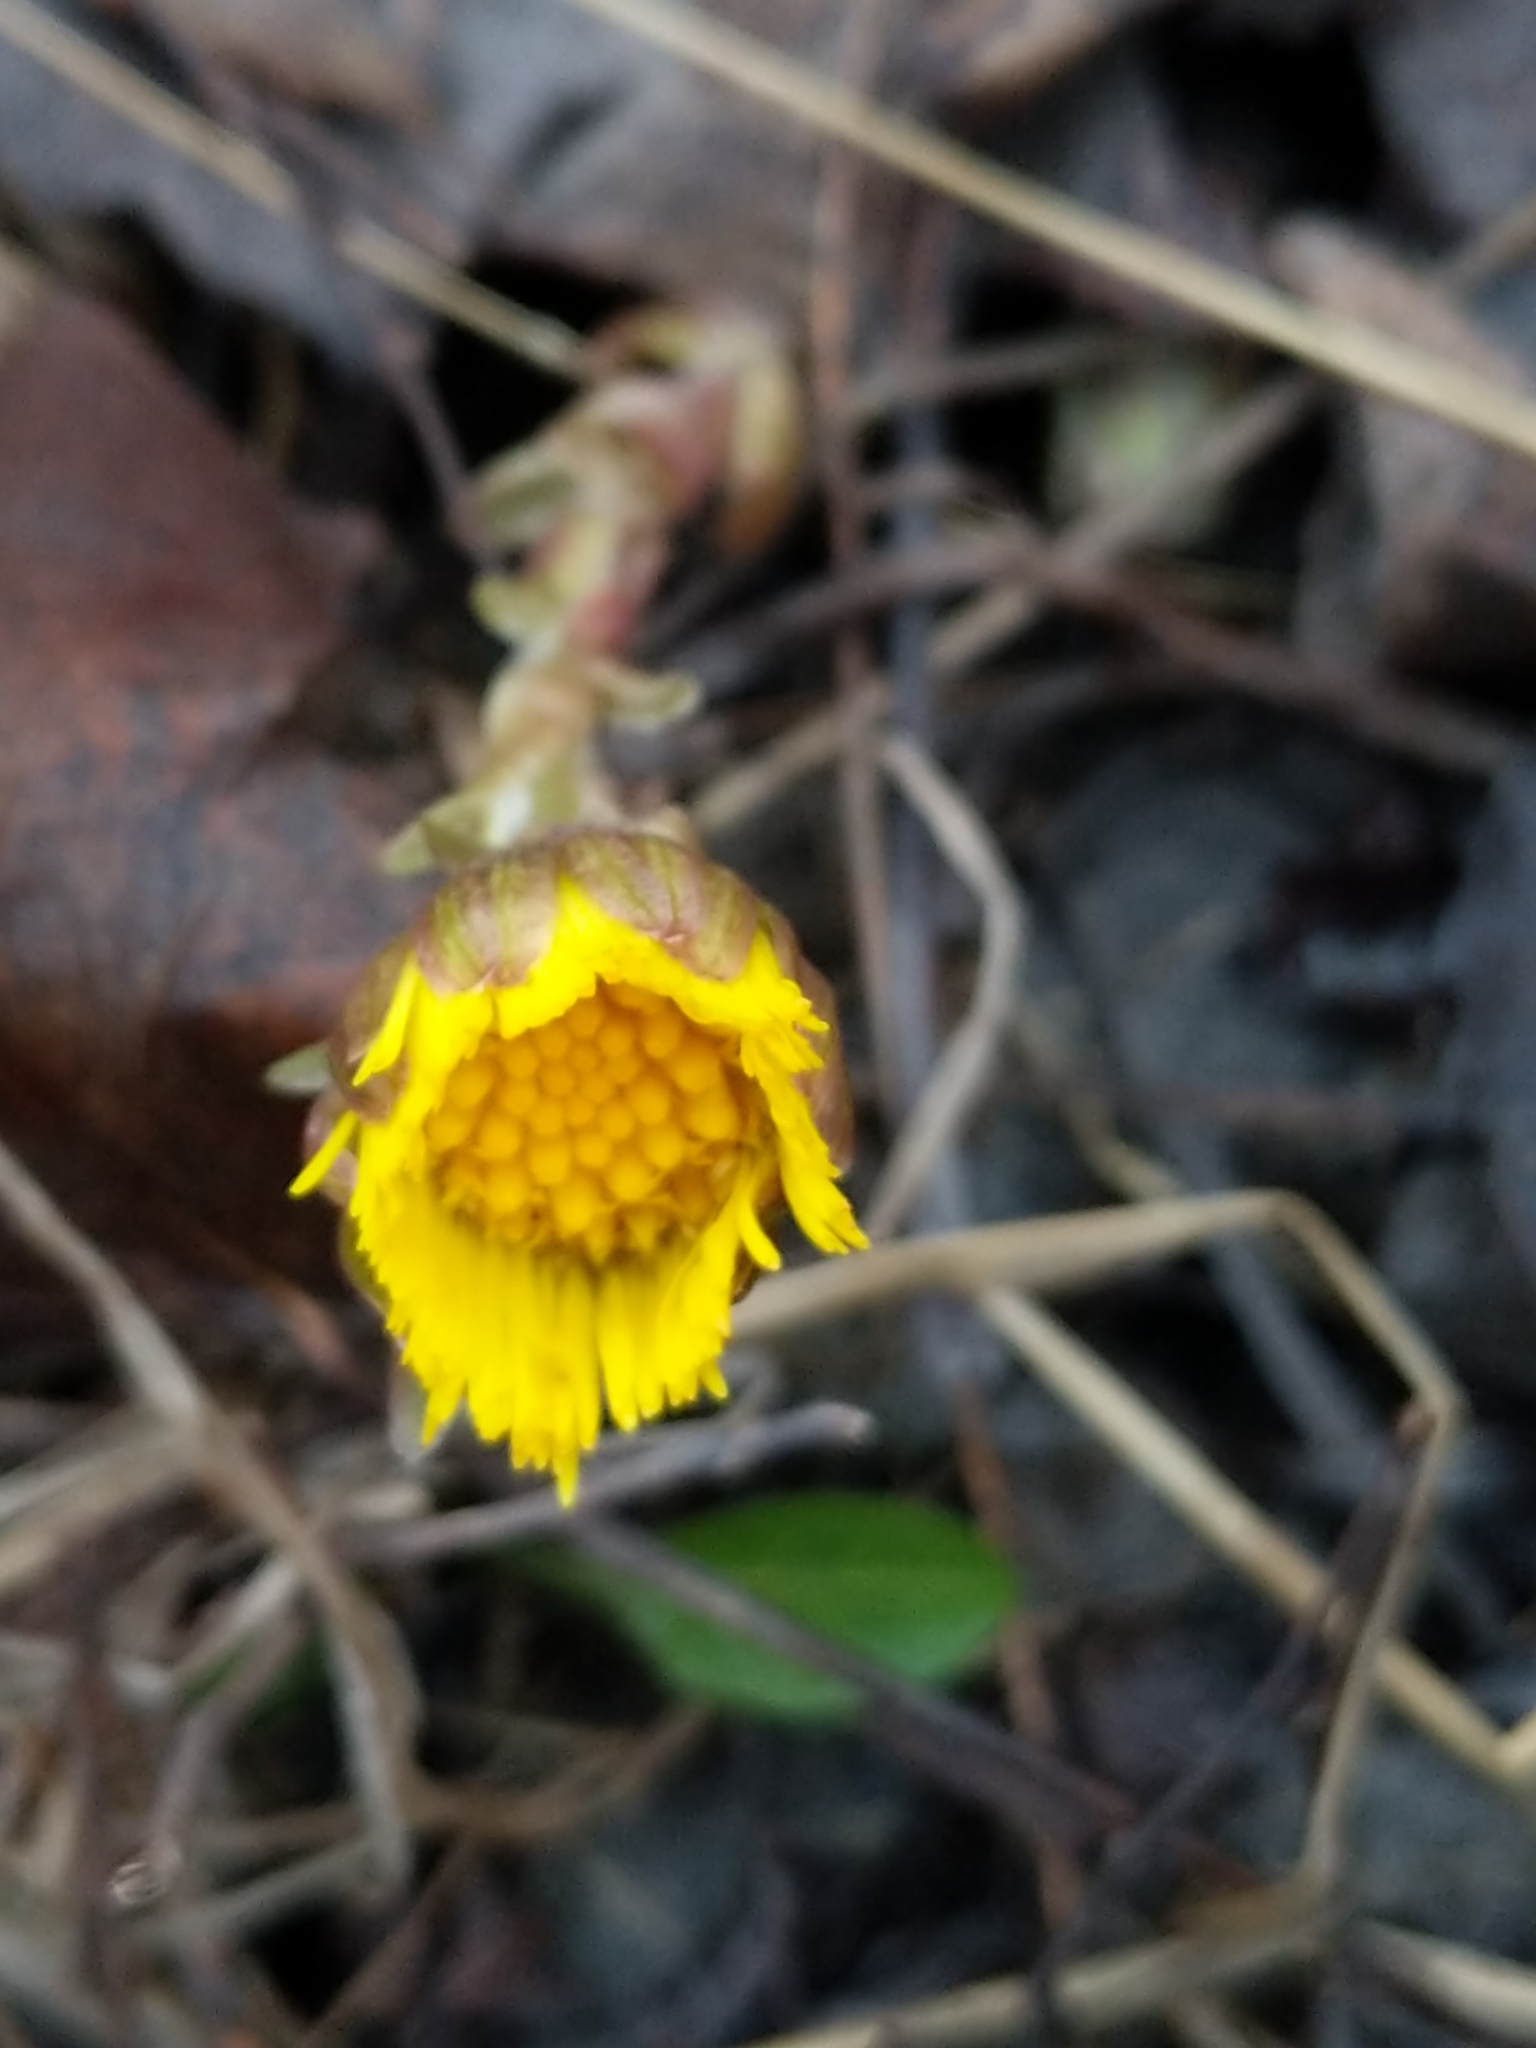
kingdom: Plantae
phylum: Tracheophyta
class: Magnoliopsida
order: Asterales
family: Asteraceae
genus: Tussilago
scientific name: Tussilago farfara
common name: Coltsfoot
